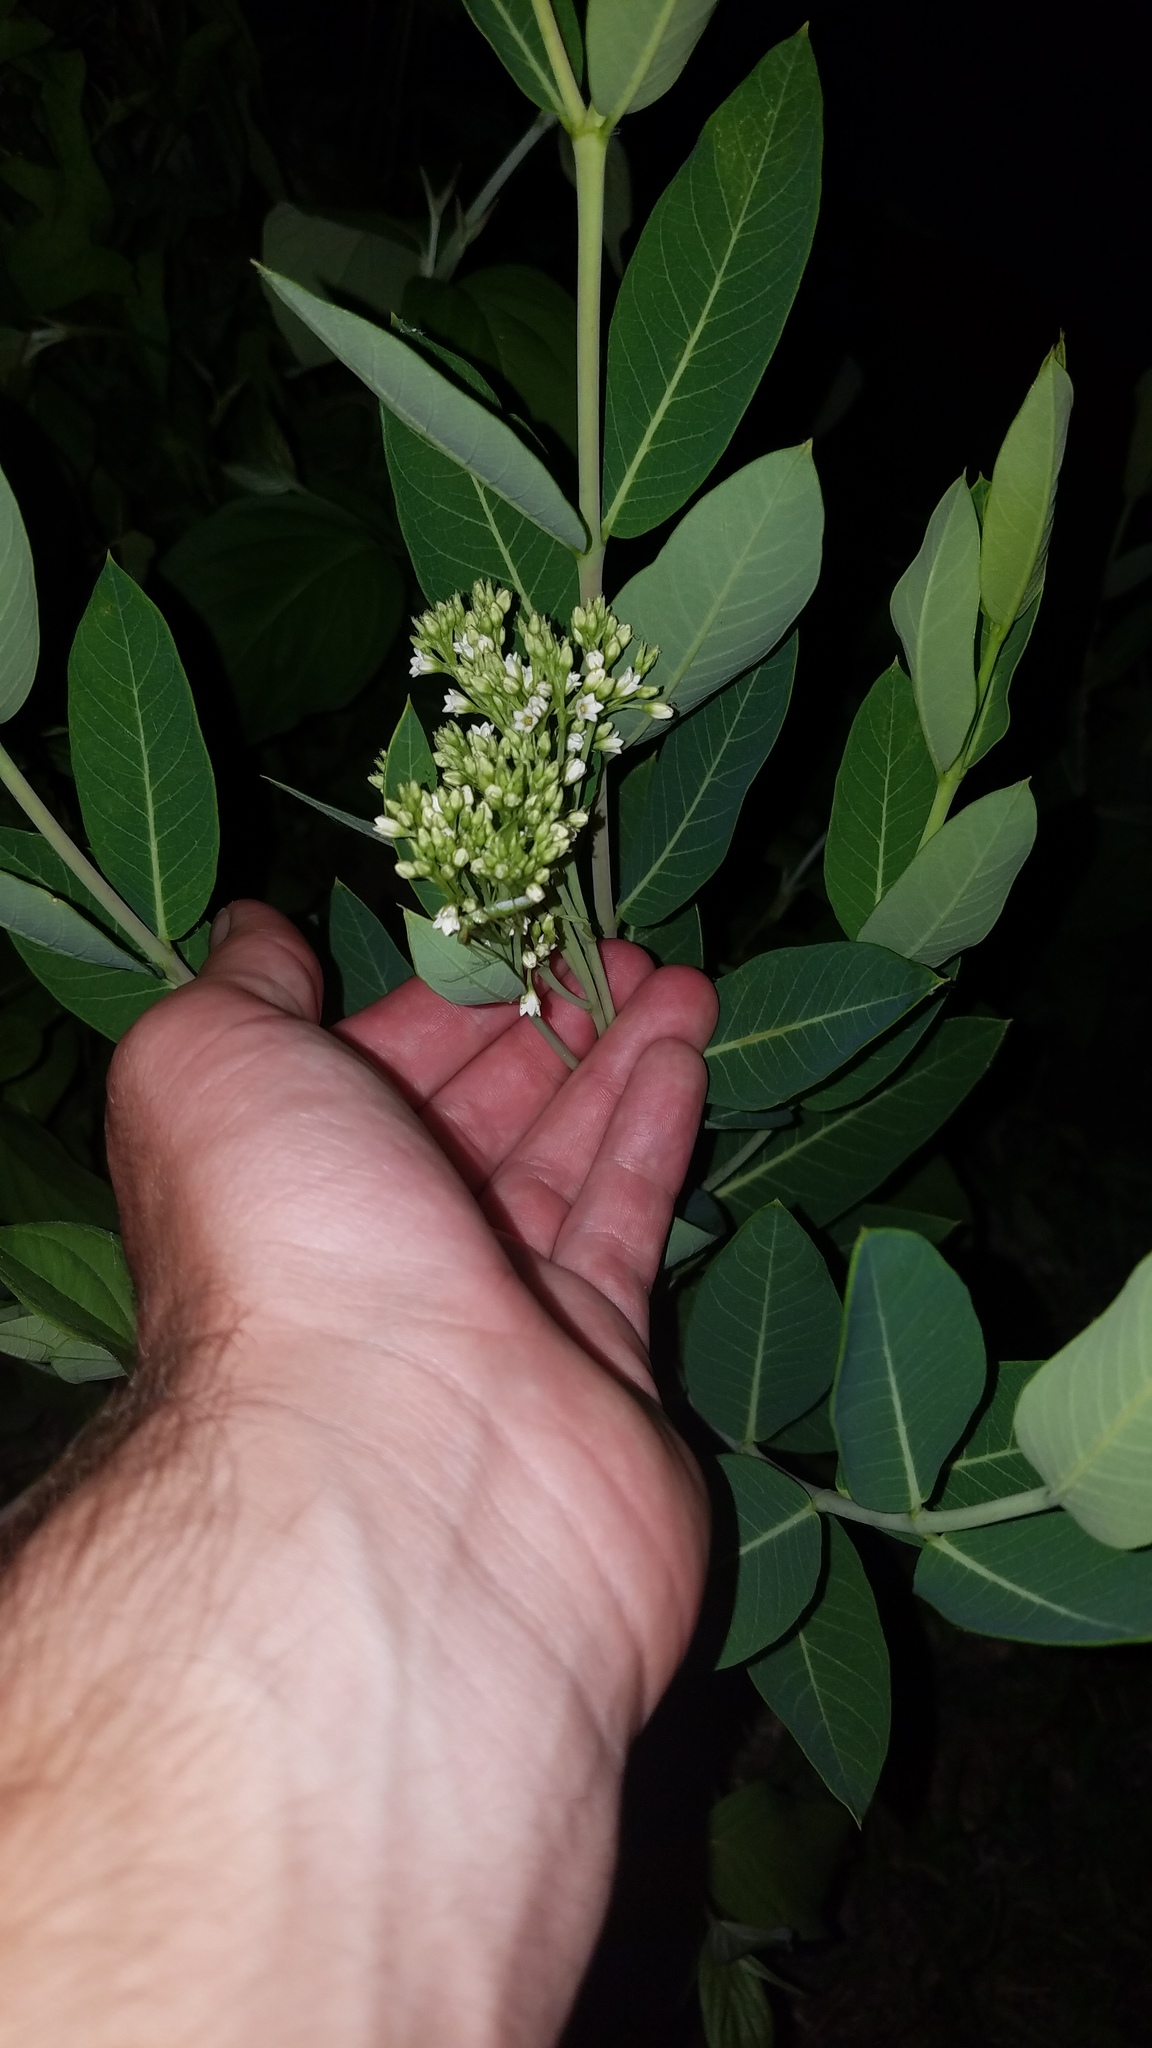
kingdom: Plantae
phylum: Tracheophyta
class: Magnoliopsida
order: Gentianales
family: Apocynaceae
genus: Apocynum
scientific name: Apocynum cannabinum
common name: Hemp dogbane
